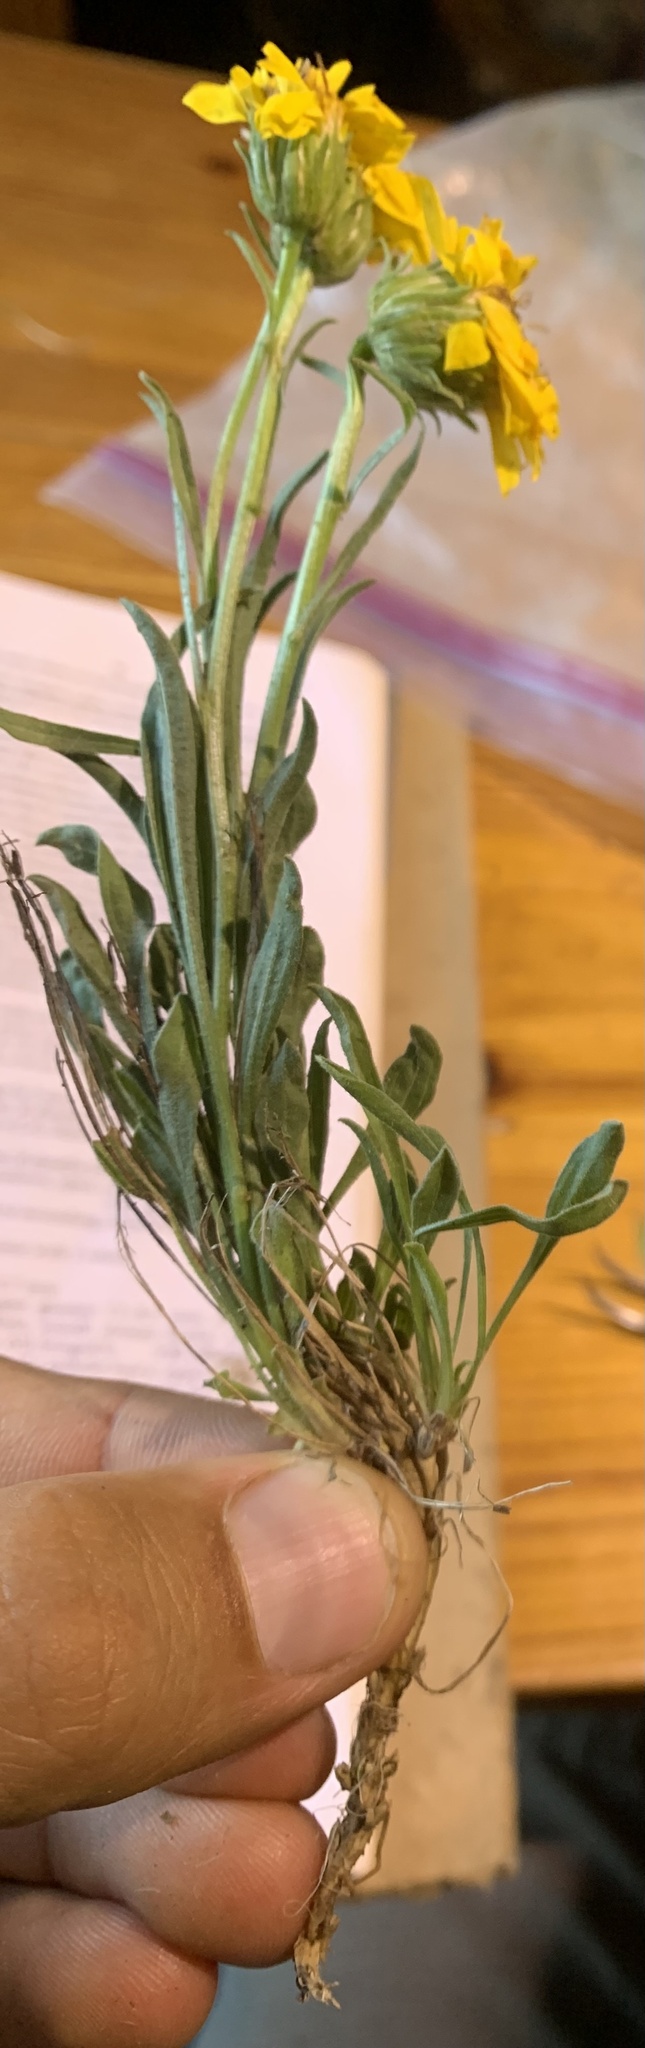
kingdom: Plantae
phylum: Tracheophyta
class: Magnoliopsida
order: Asterales
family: Asteraceae
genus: Nestotus
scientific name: Nestotus lanuginosus
